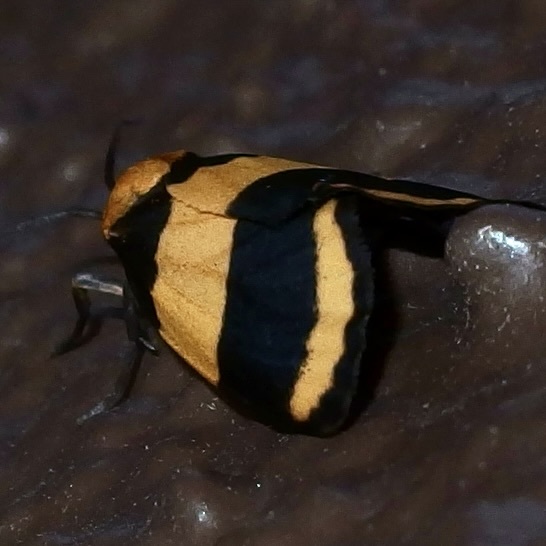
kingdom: Animalia
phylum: Arthropoda
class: Insecta
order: Lepidoptera
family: Erebidae
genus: Eudesmia
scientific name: Eudesmia arida
